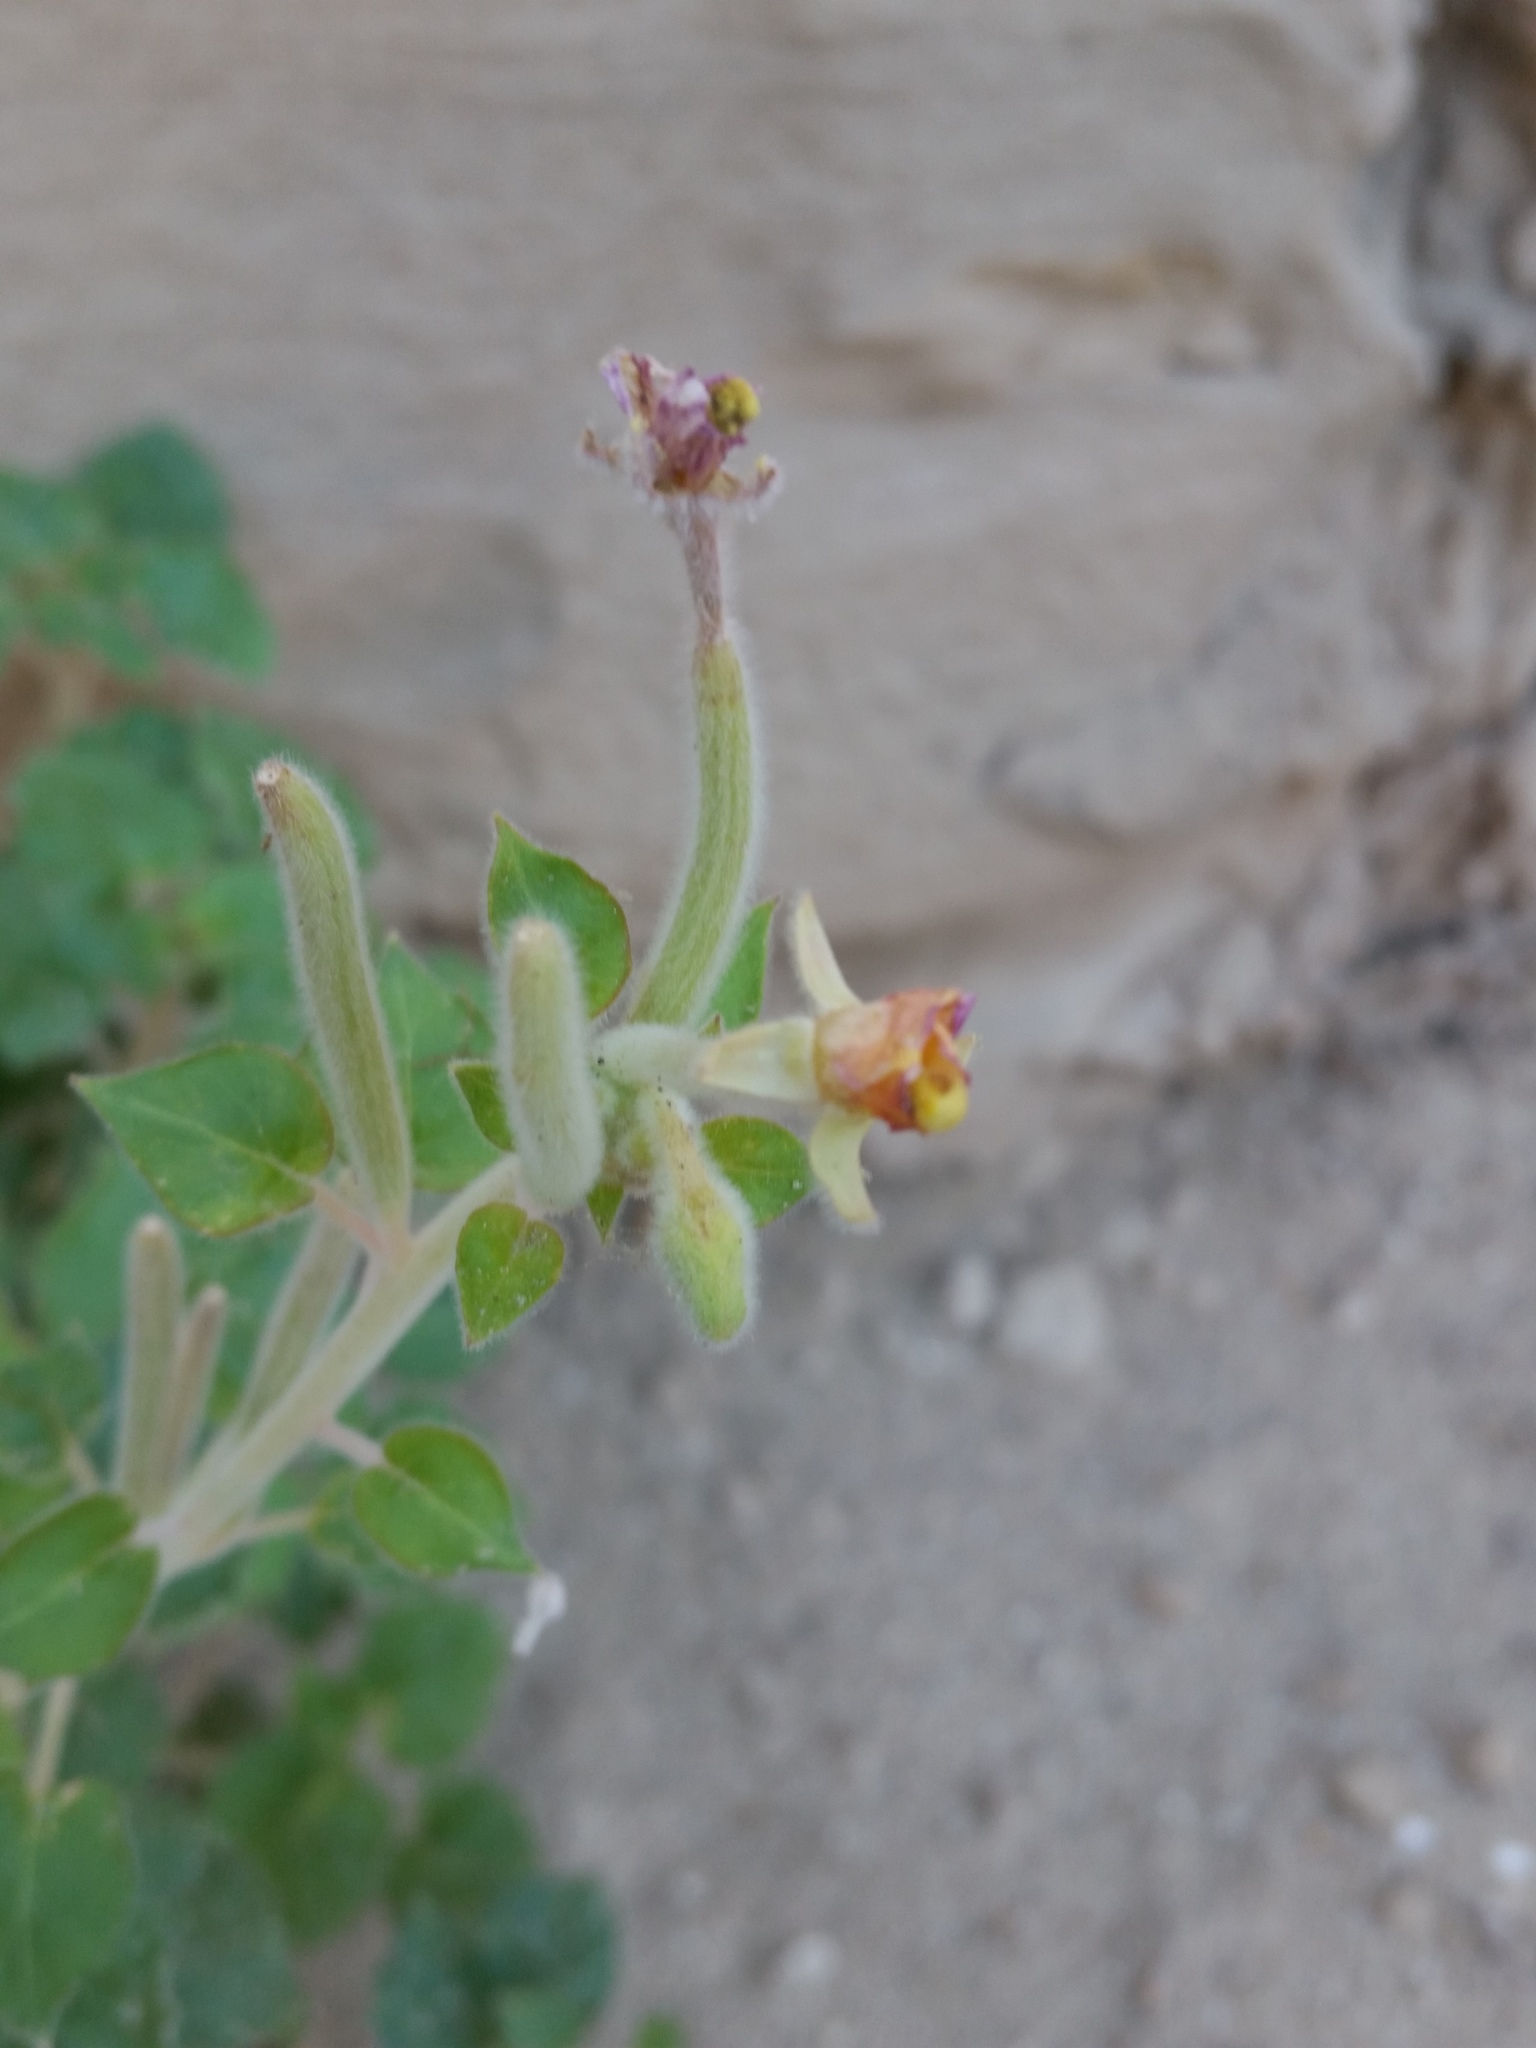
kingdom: Plantae
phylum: Tracheophyta
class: Magnoliopsida
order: Myrtales
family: Onagraceae
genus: Chylismia
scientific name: Chylismia cardiophylla
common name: Heartleaf suncup
